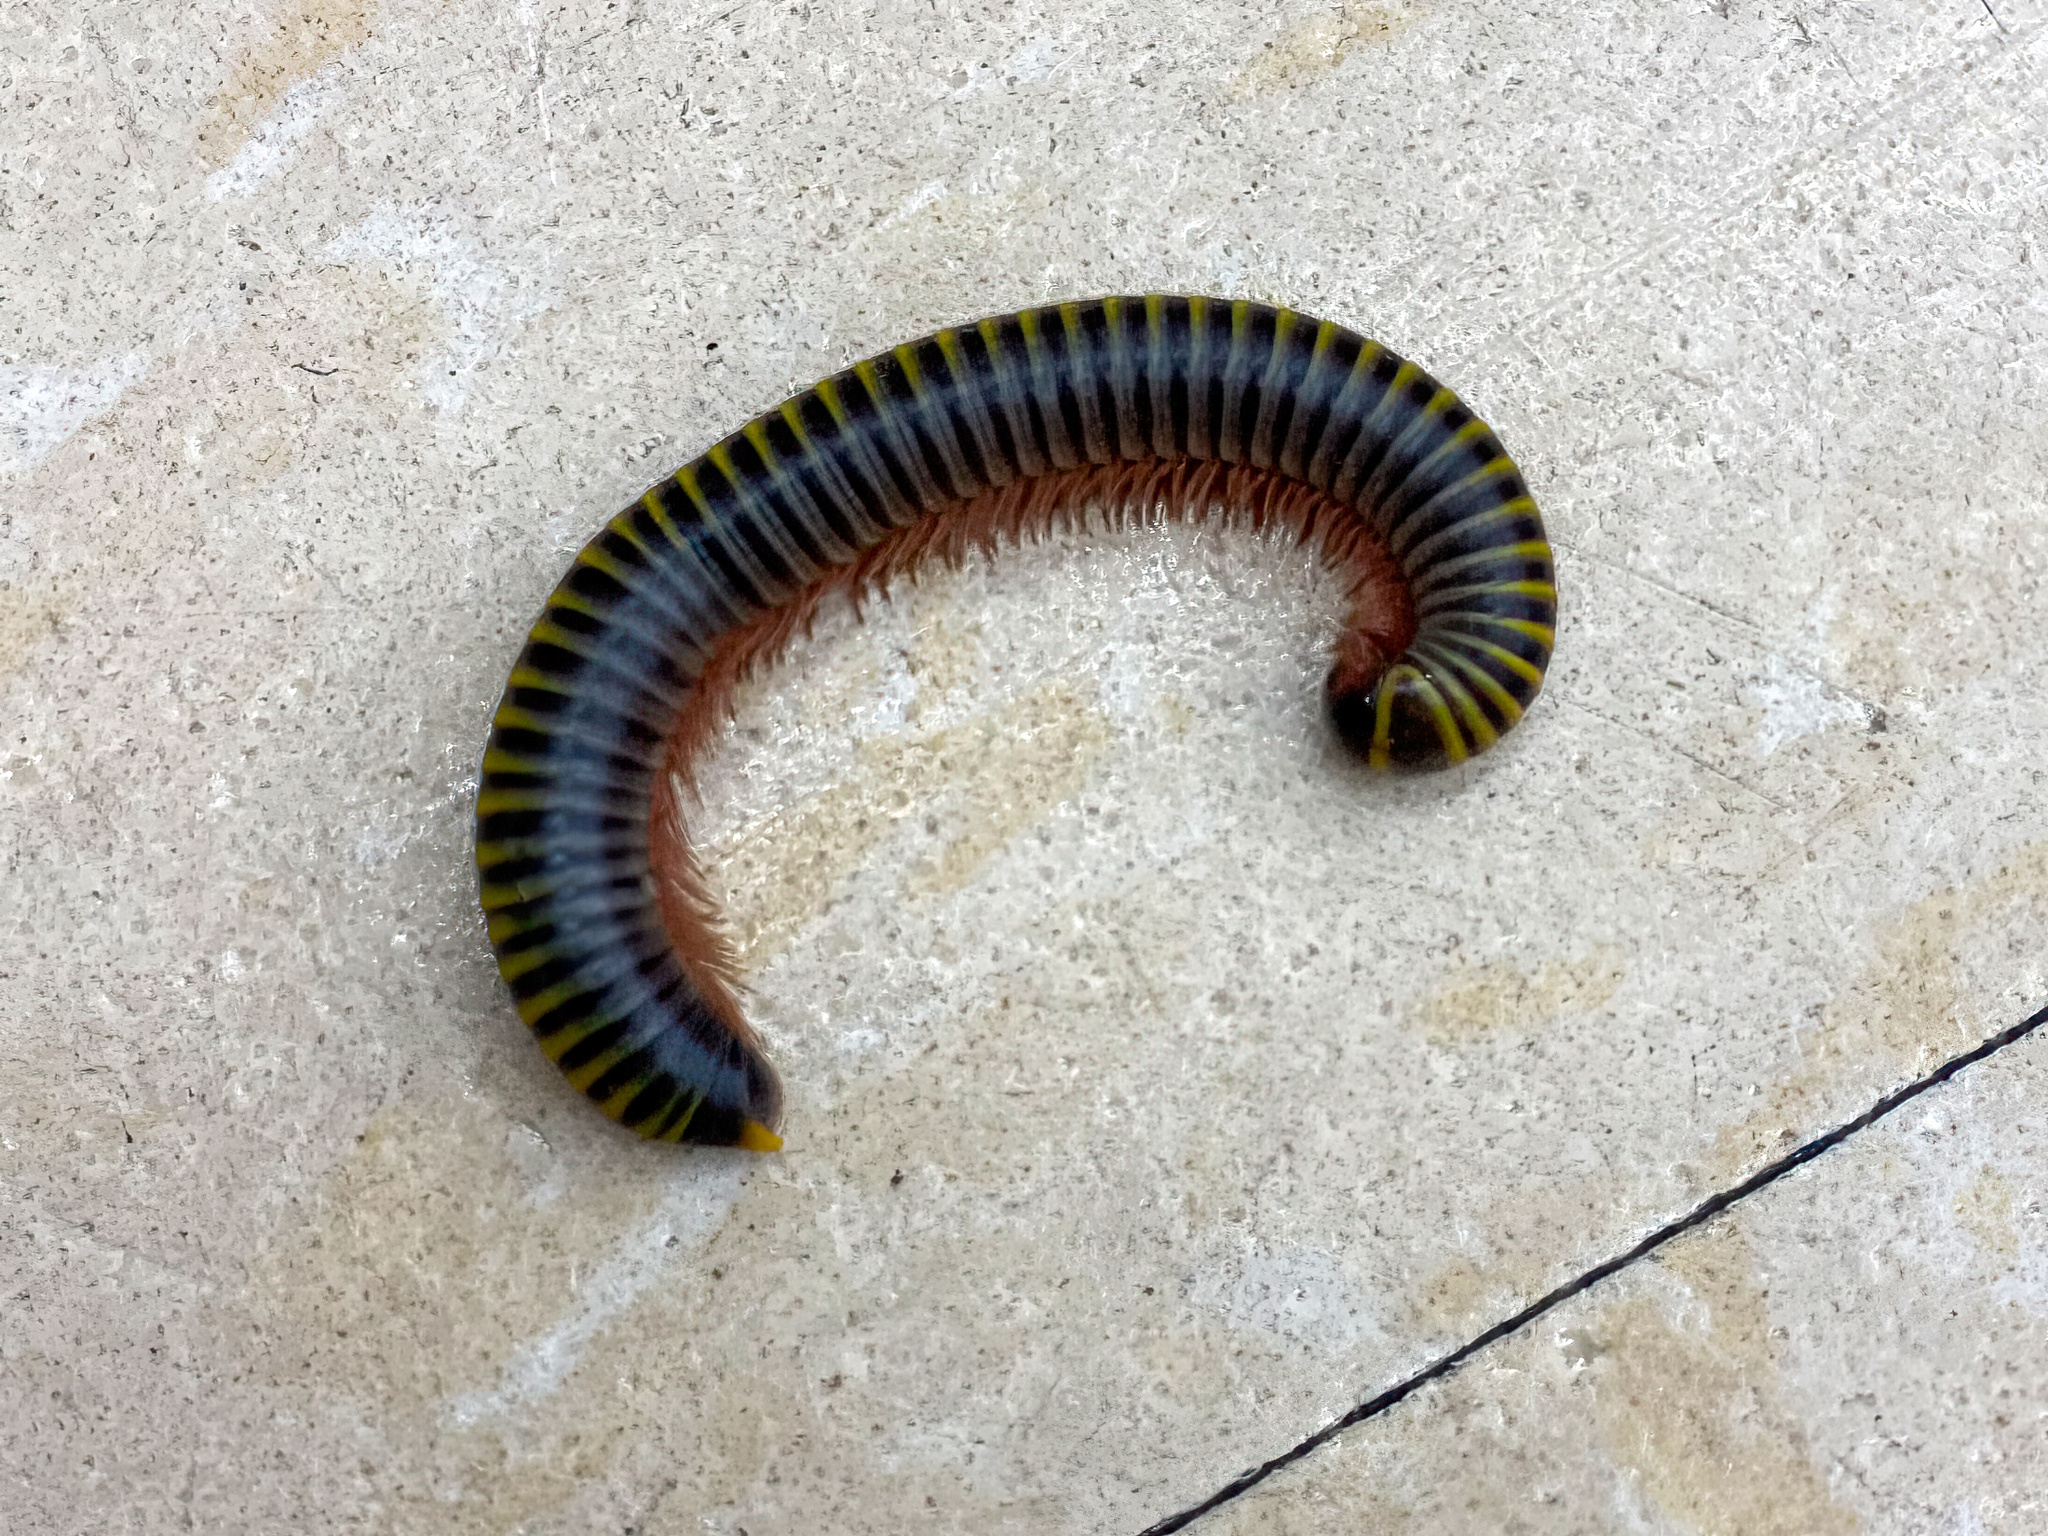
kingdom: Animalia
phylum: Arthropoda
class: Diplopoda
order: Spirobolida
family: Rhinocricidae
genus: Anadenobolus
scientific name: Anadenobolus monilicornis
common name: Caribbean millipede
